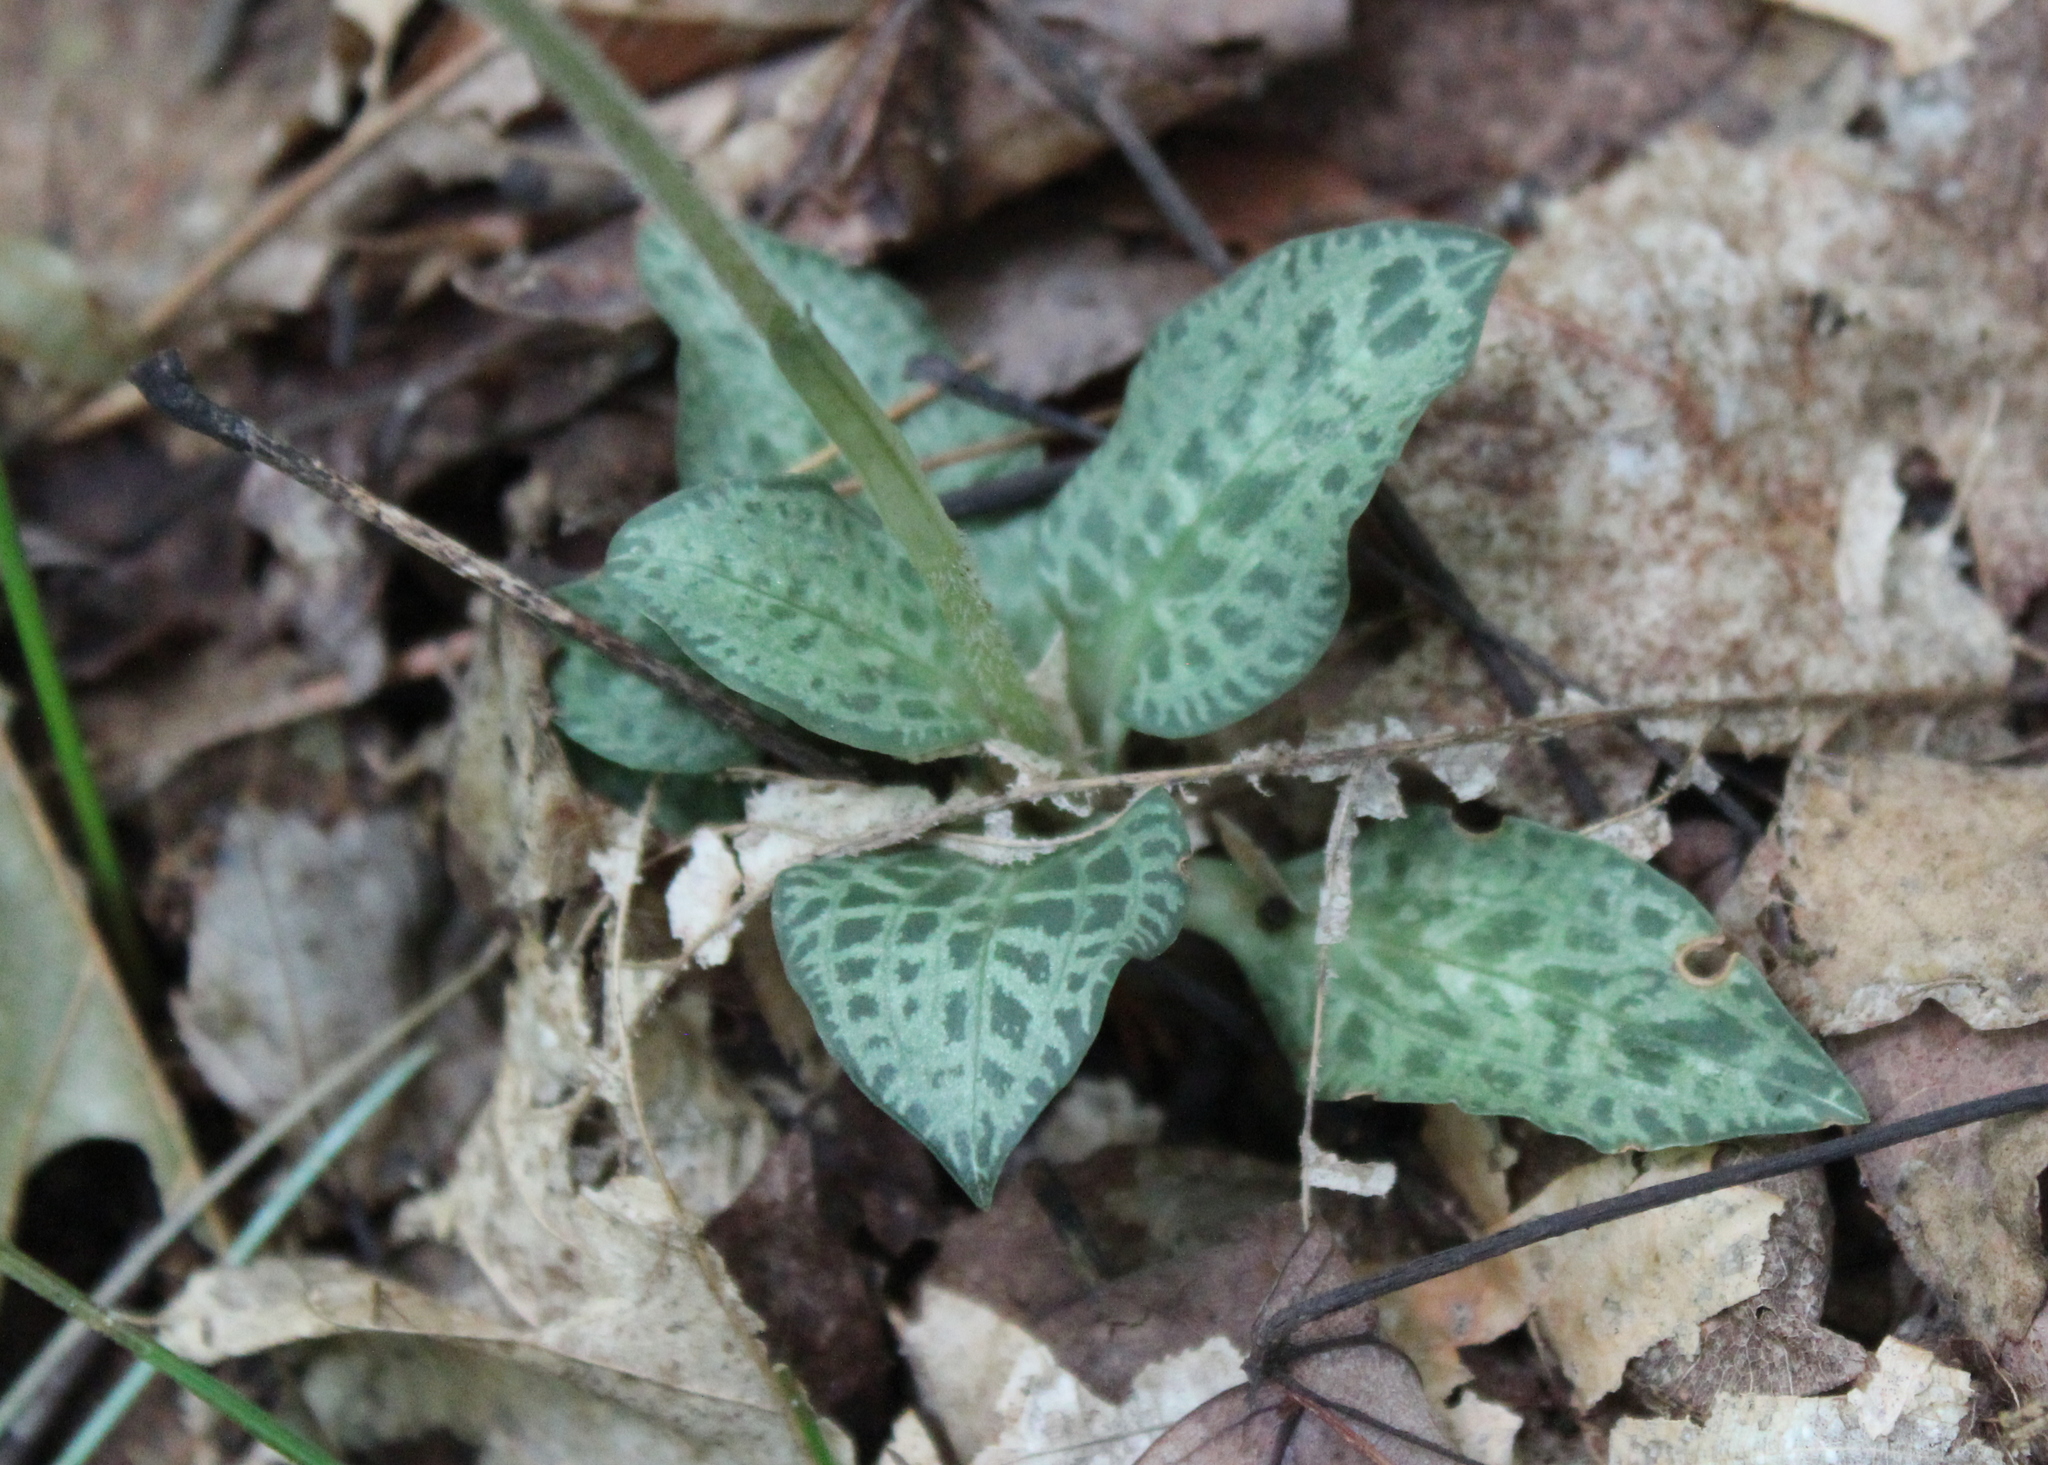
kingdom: Plantae
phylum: Tracheophyta
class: Liliopsida
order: Asparagales
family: Orchidaceae
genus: Goodyera
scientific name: Goodyera tesselata
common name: Checkered rattlesnake-plantain
